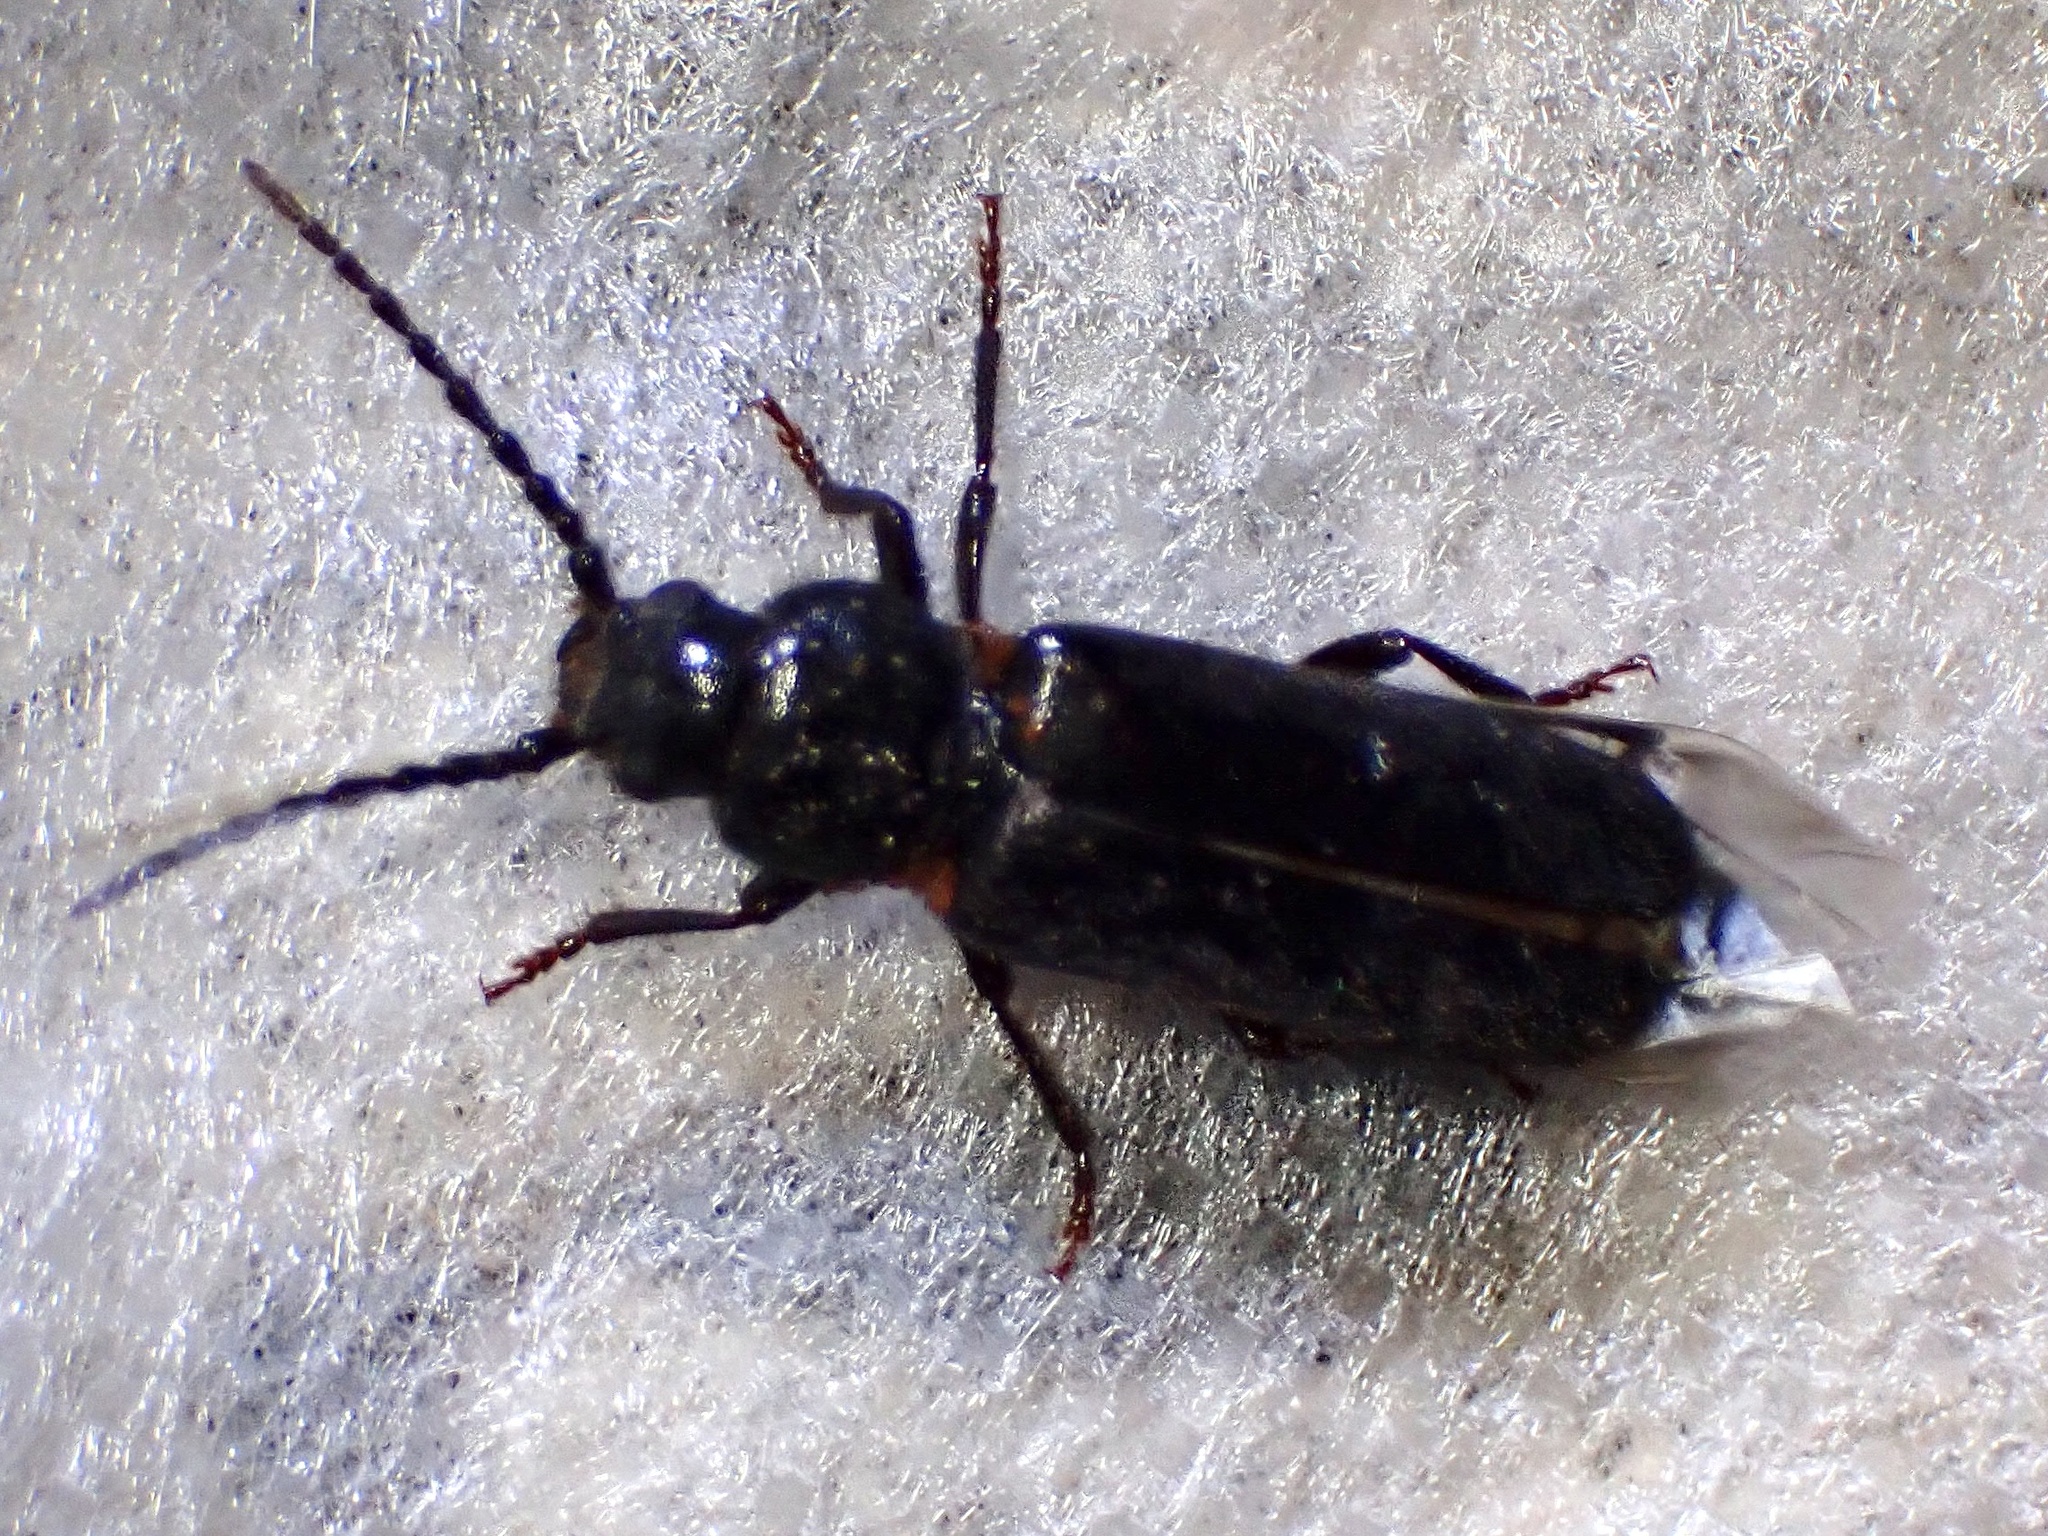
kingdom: Animalia
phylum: Arthropoda
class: Insecta
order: Coleoptera
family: Cerambycidae
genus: Asemum
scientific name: Asemum nitidum
